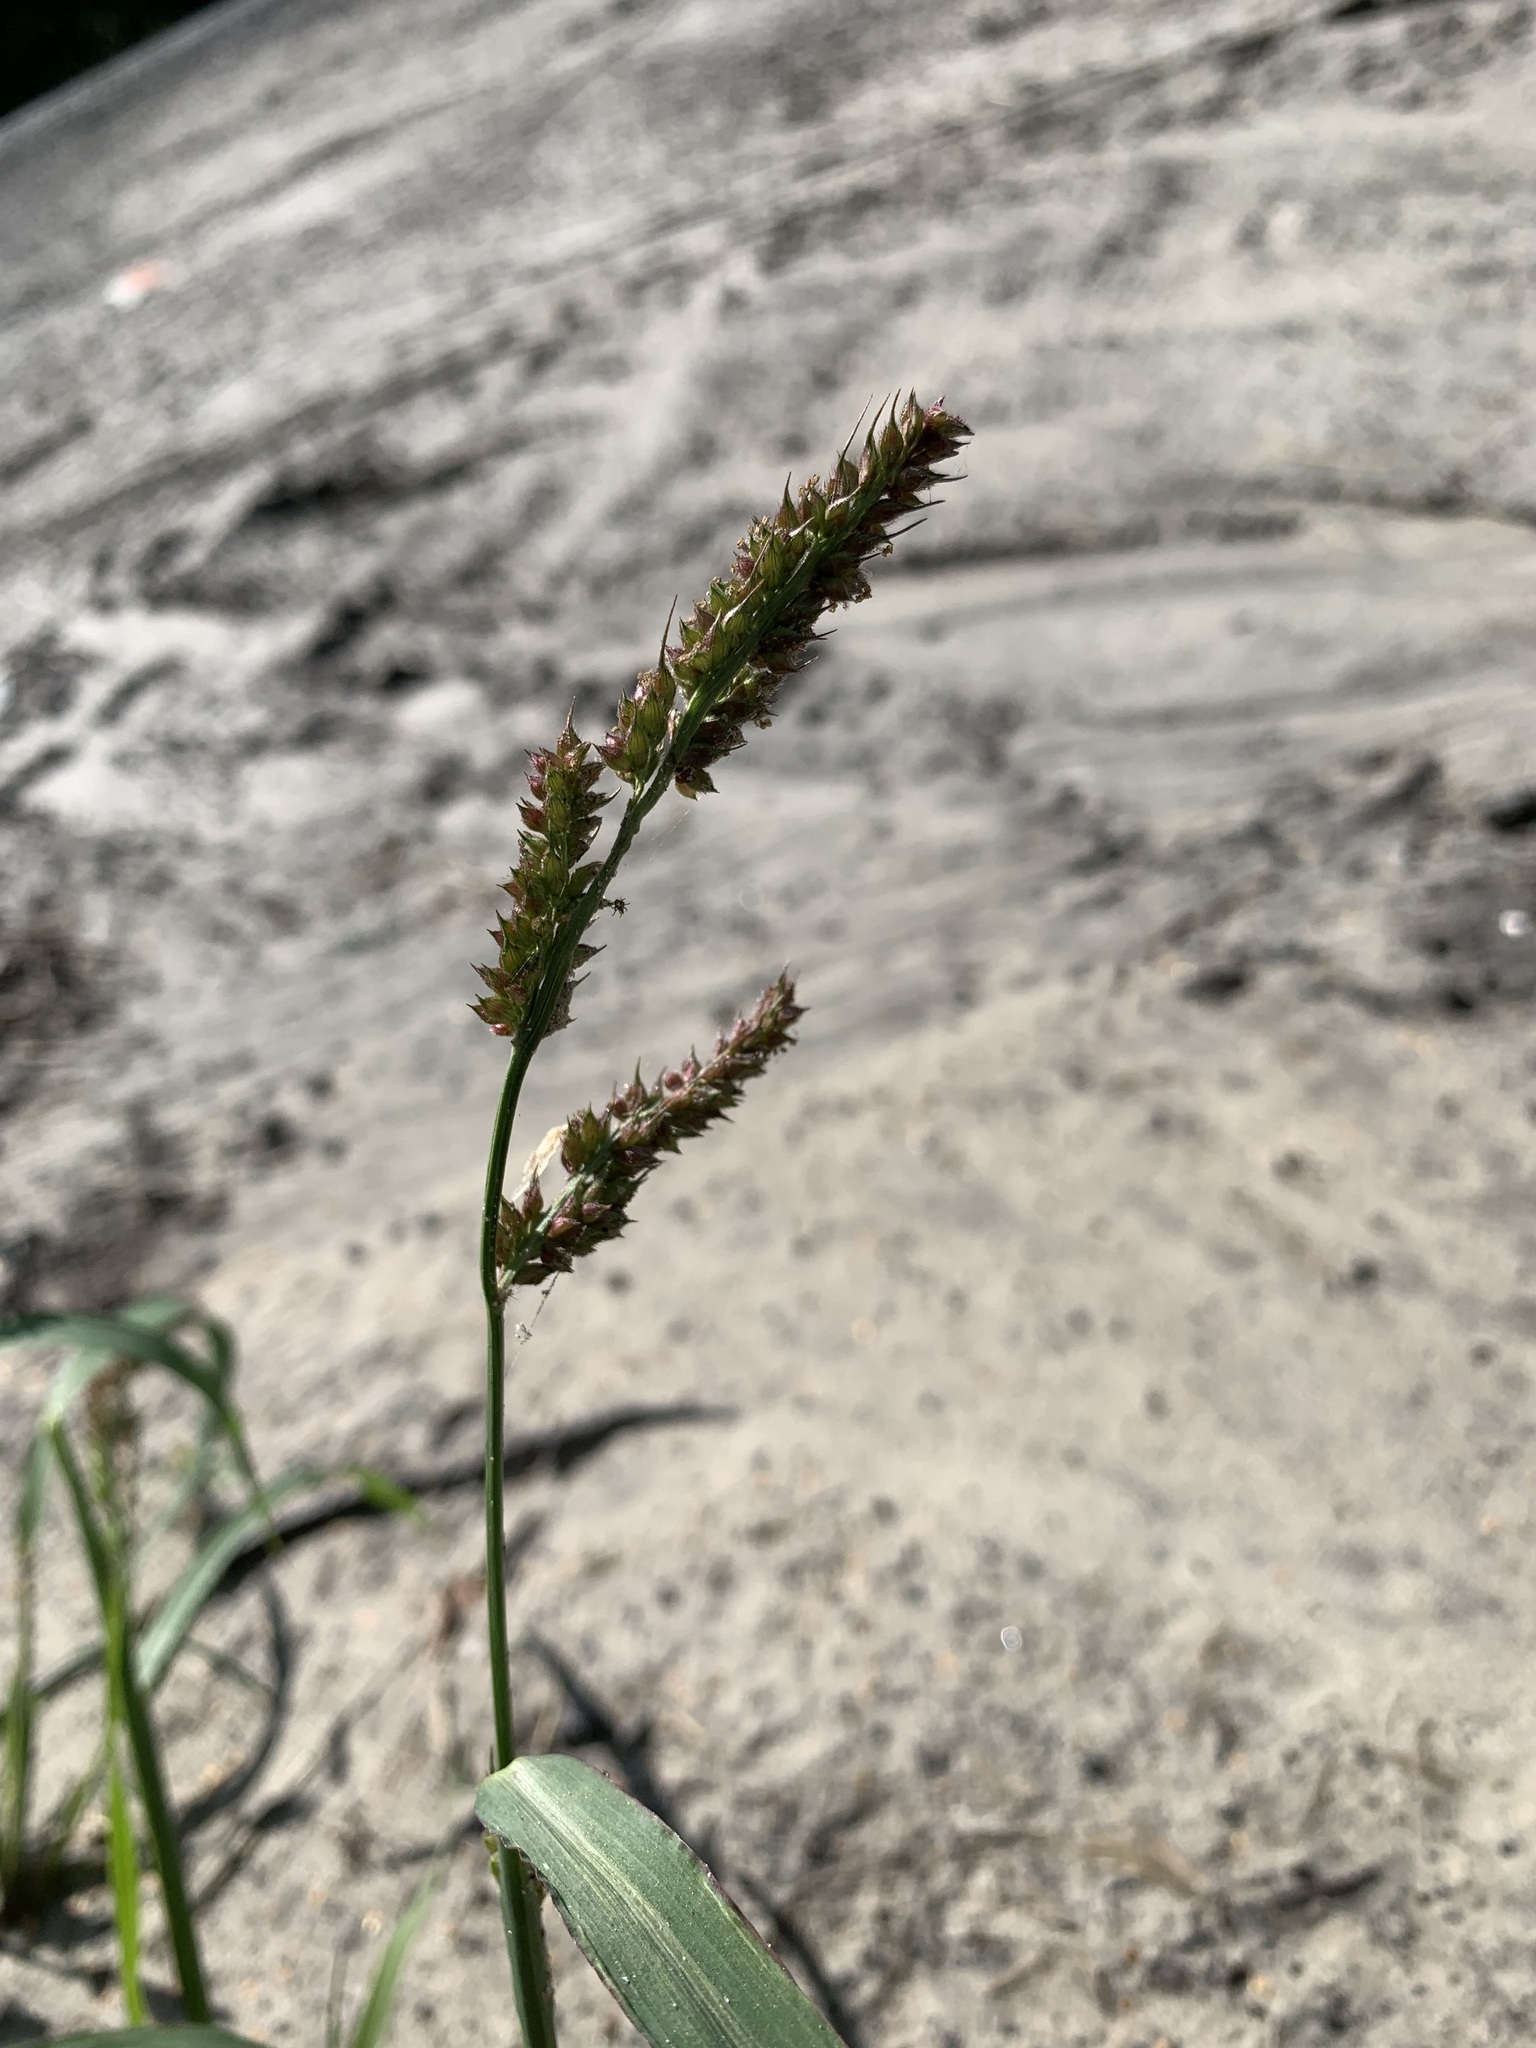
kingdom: Plantae
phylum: Tracheophyta
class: Liliopsida
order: Poales
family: Poaceae
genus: Echinochloa
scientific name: Echinochloa crus-galli
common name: Cockspur
